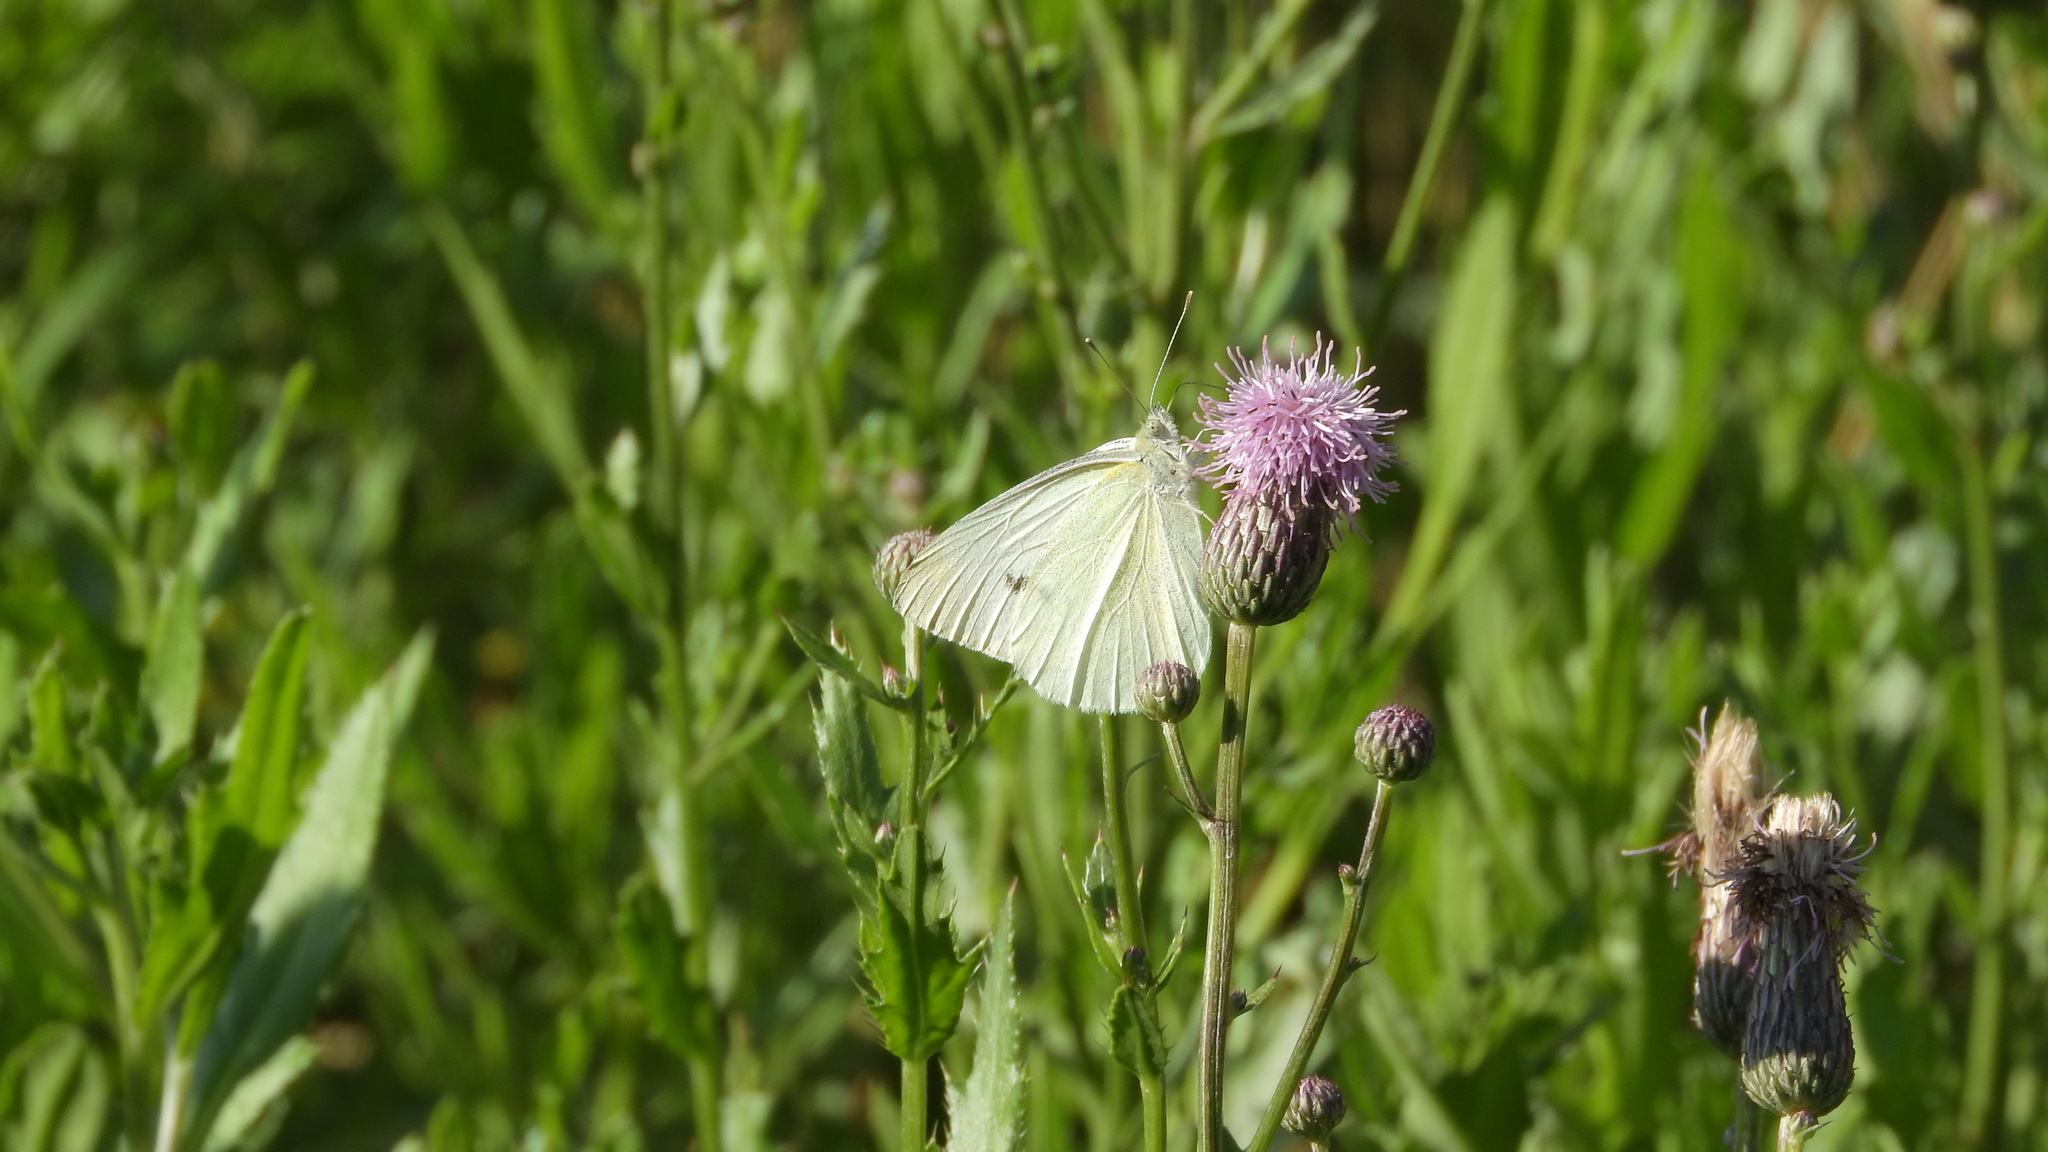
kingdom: Animalia
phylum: Arthropoda
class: Insecta
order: Lepidoptera
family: Pieridae
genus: Pieris
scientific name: Pieris rapae
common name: Small white
